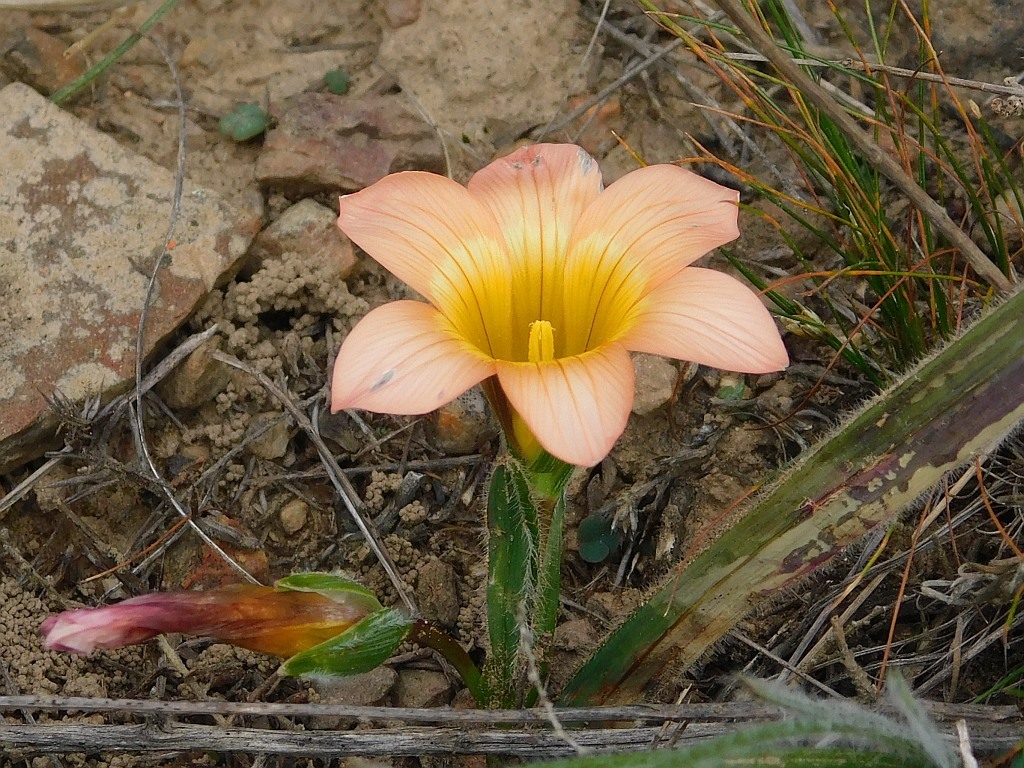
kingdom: Plantae
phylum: Tracheophyta
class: Liliopsida
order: Asparagales
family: Iridaceae
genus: Romulea
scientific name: Romulea pilosa
